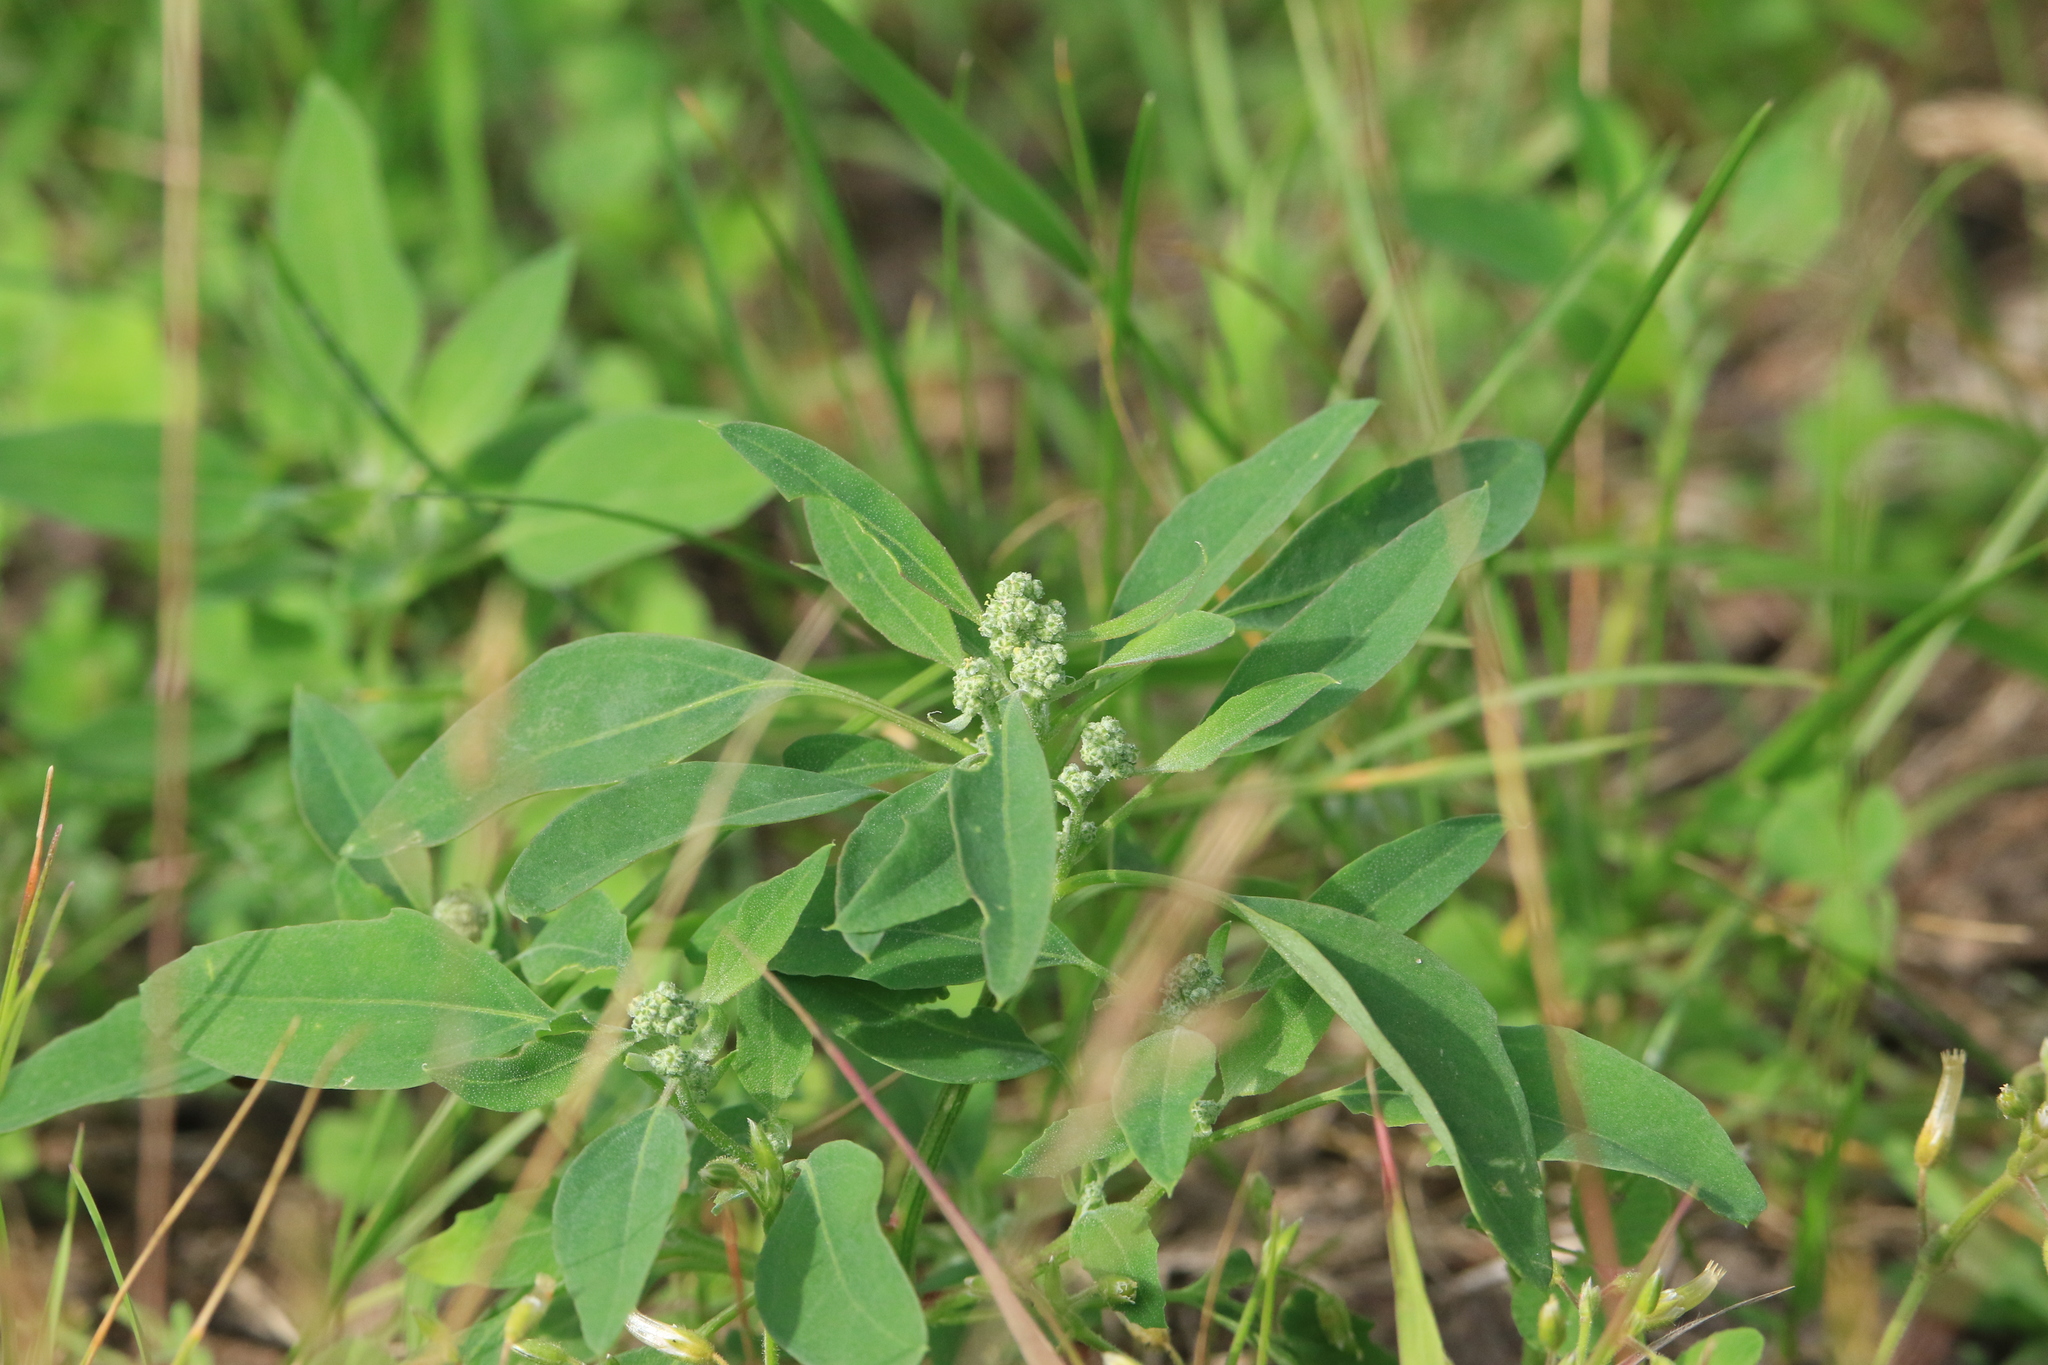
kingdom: Plantae
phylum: Tracheophyta
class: Magnoliopsida
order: Caryophyllales
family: Amaranthaceae
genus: Chenopodium
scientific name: Chenopodium album
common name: Fat-hen
